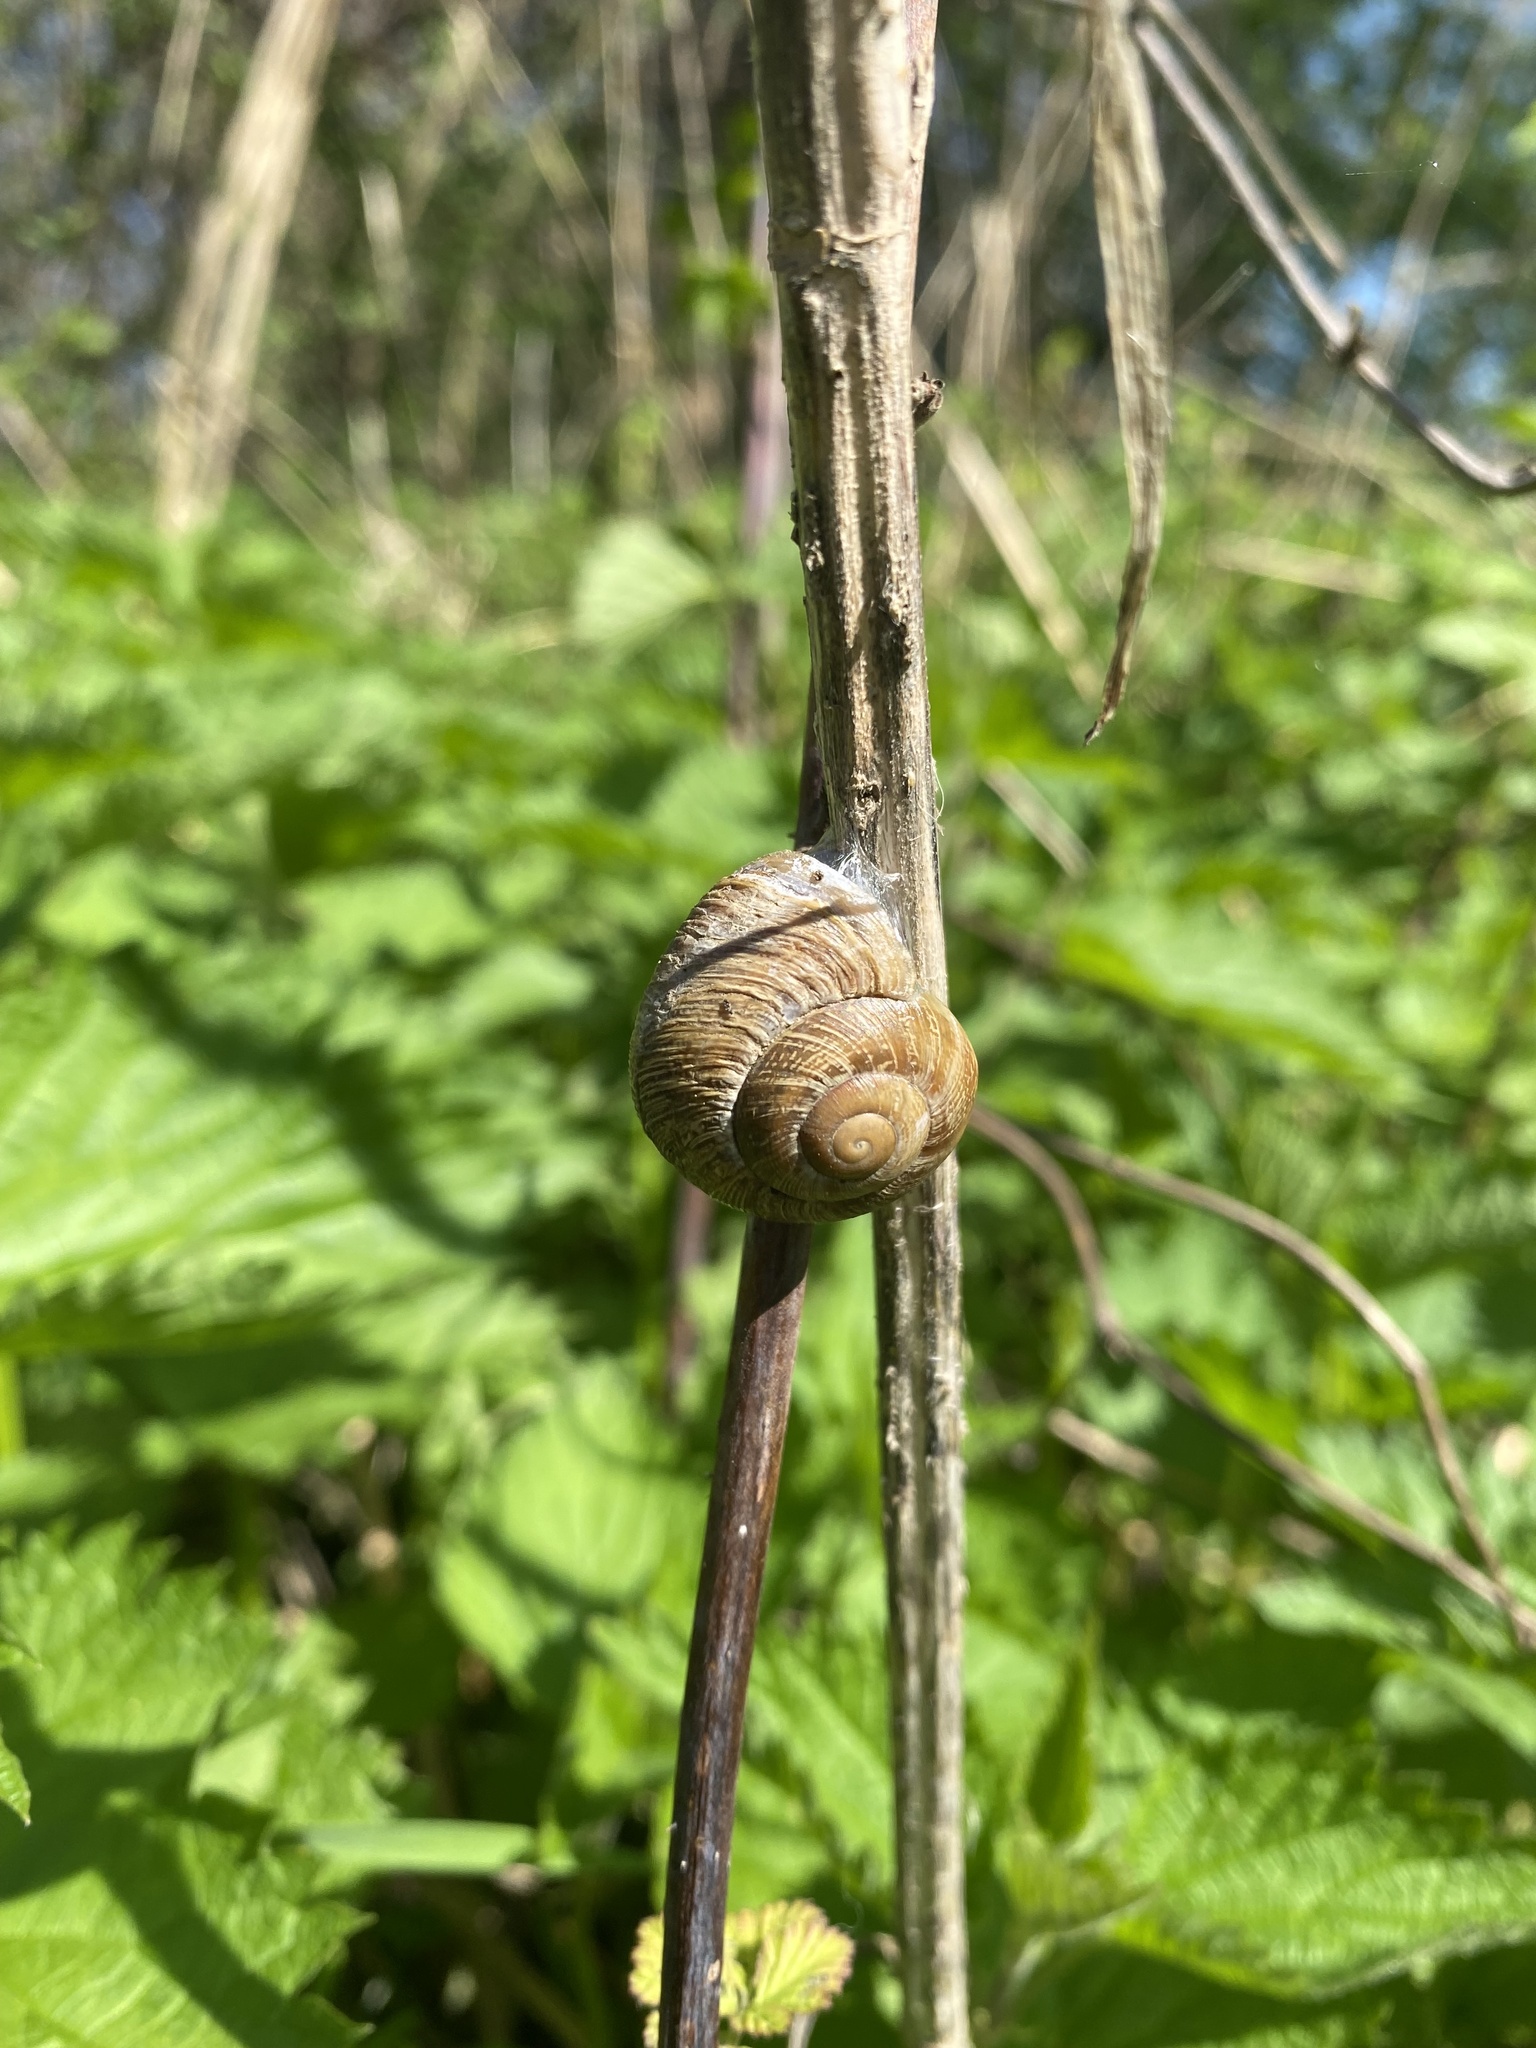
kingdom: Animalia
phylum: Mollusca
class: Gastropoda
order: Stylommatophora
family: Helicidae
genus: Caucasotachea
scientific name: Caucasotachea atrolabiata
